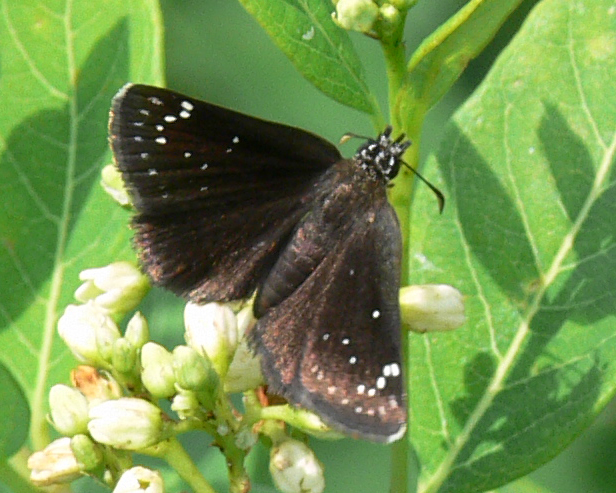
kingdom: Animalia
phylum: Arthropoda
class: Insecta
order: Lepidoptera
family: Hesperiidae
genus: Pholisora
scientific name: Pholisora catullus
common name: Common sootywing
